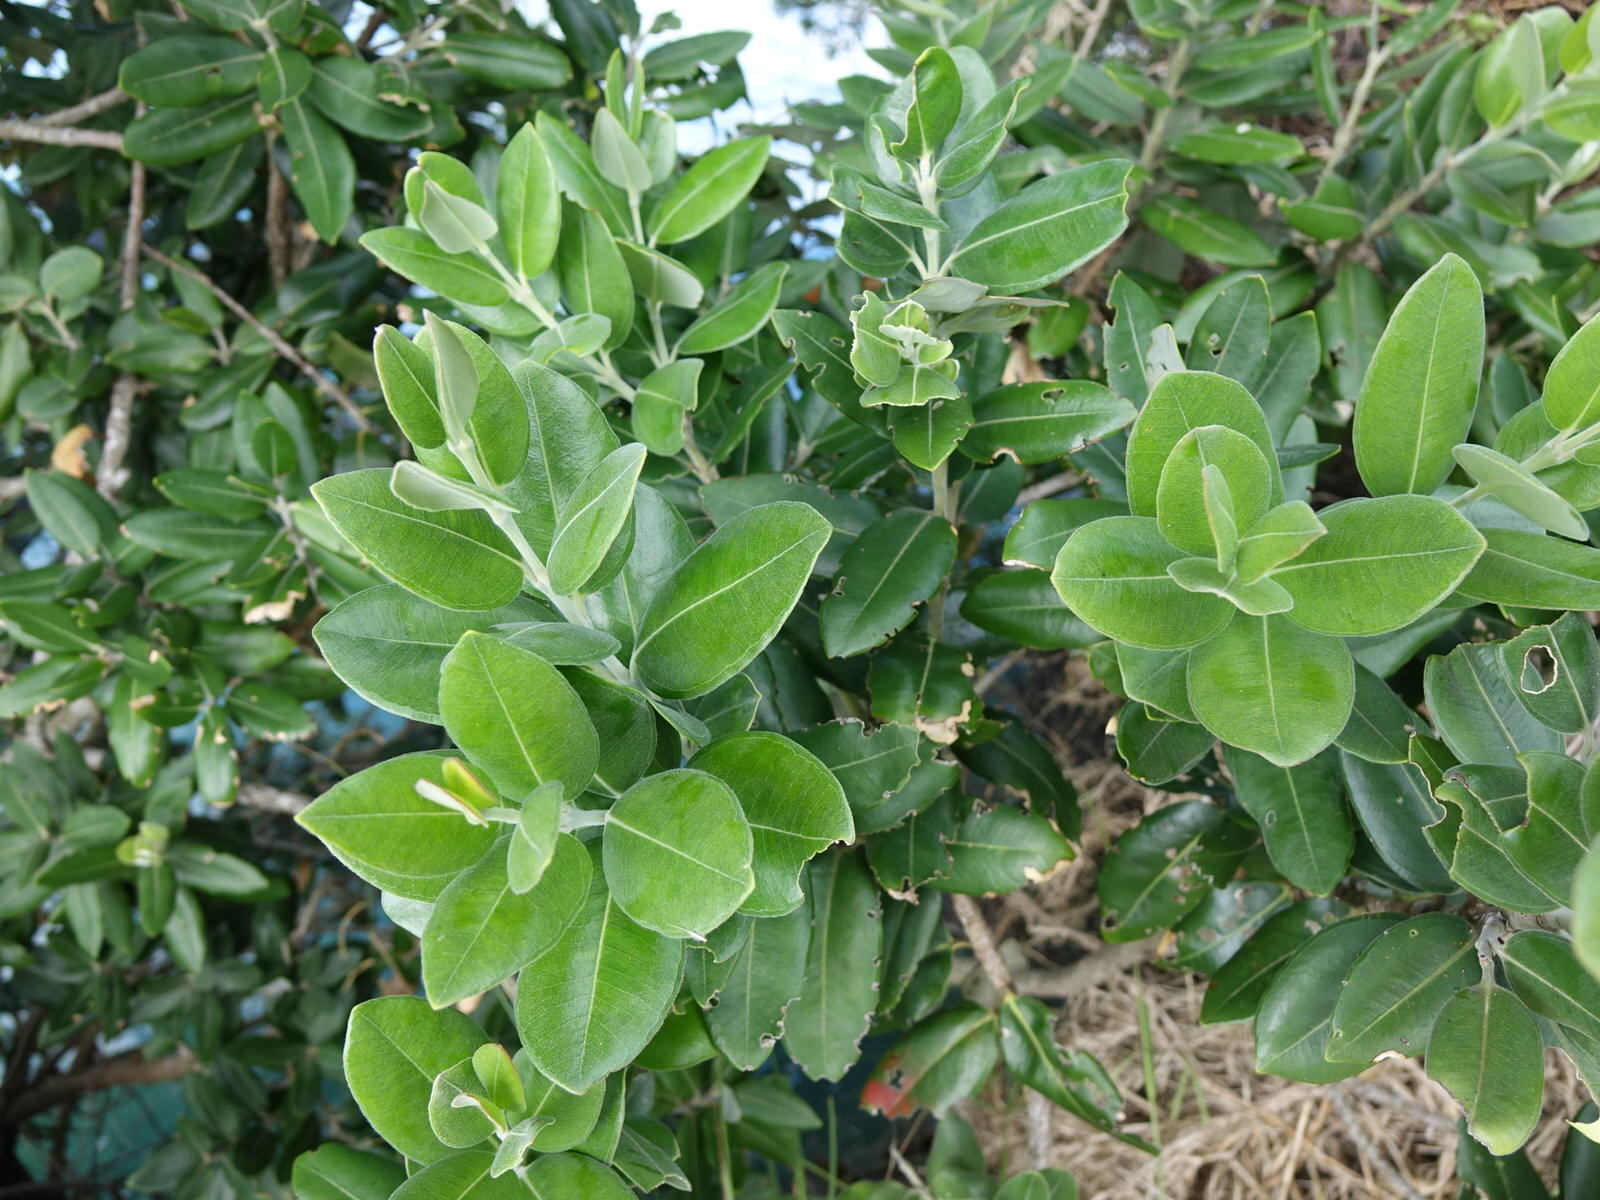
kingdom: Plantae
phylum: Tracheophyta
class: Magnoliopsida
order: Myrtales
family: Myrtaceae
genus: Metrosideros
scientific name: Metrosideros excelsa
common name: New zealand christmastree
